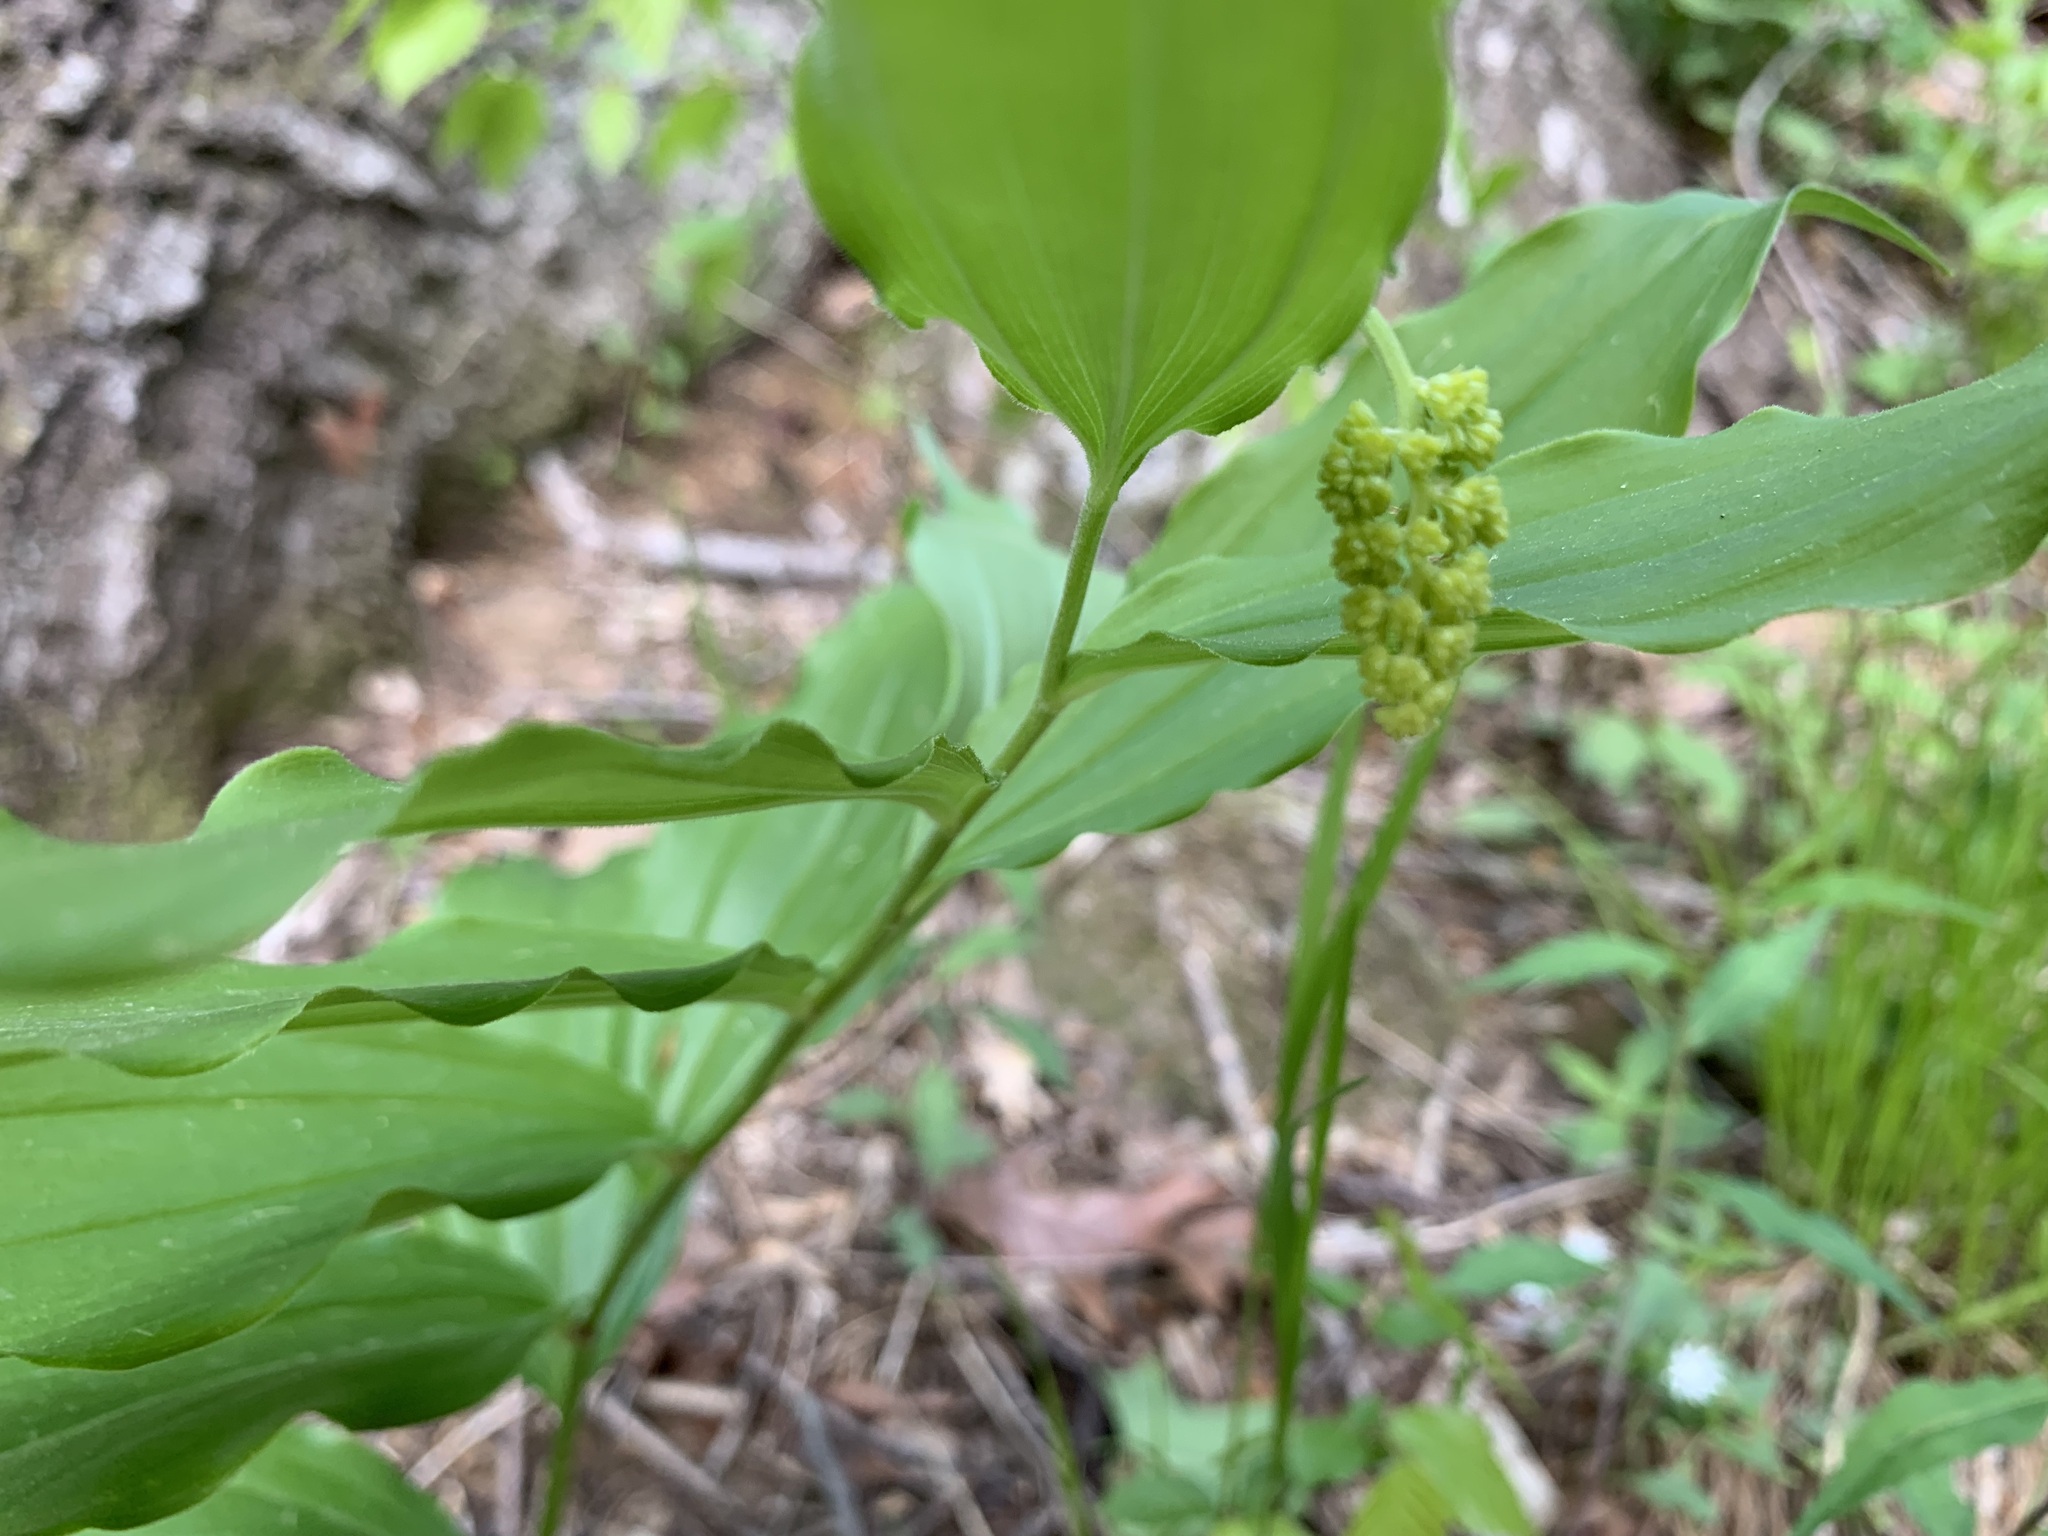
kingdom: Plantae
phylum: Tracheophyta
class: Liliopsida
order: Asparagales
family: Asparagaceae
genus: Maianthemum
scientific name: Maianthemum racemosum
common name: False spikenard
